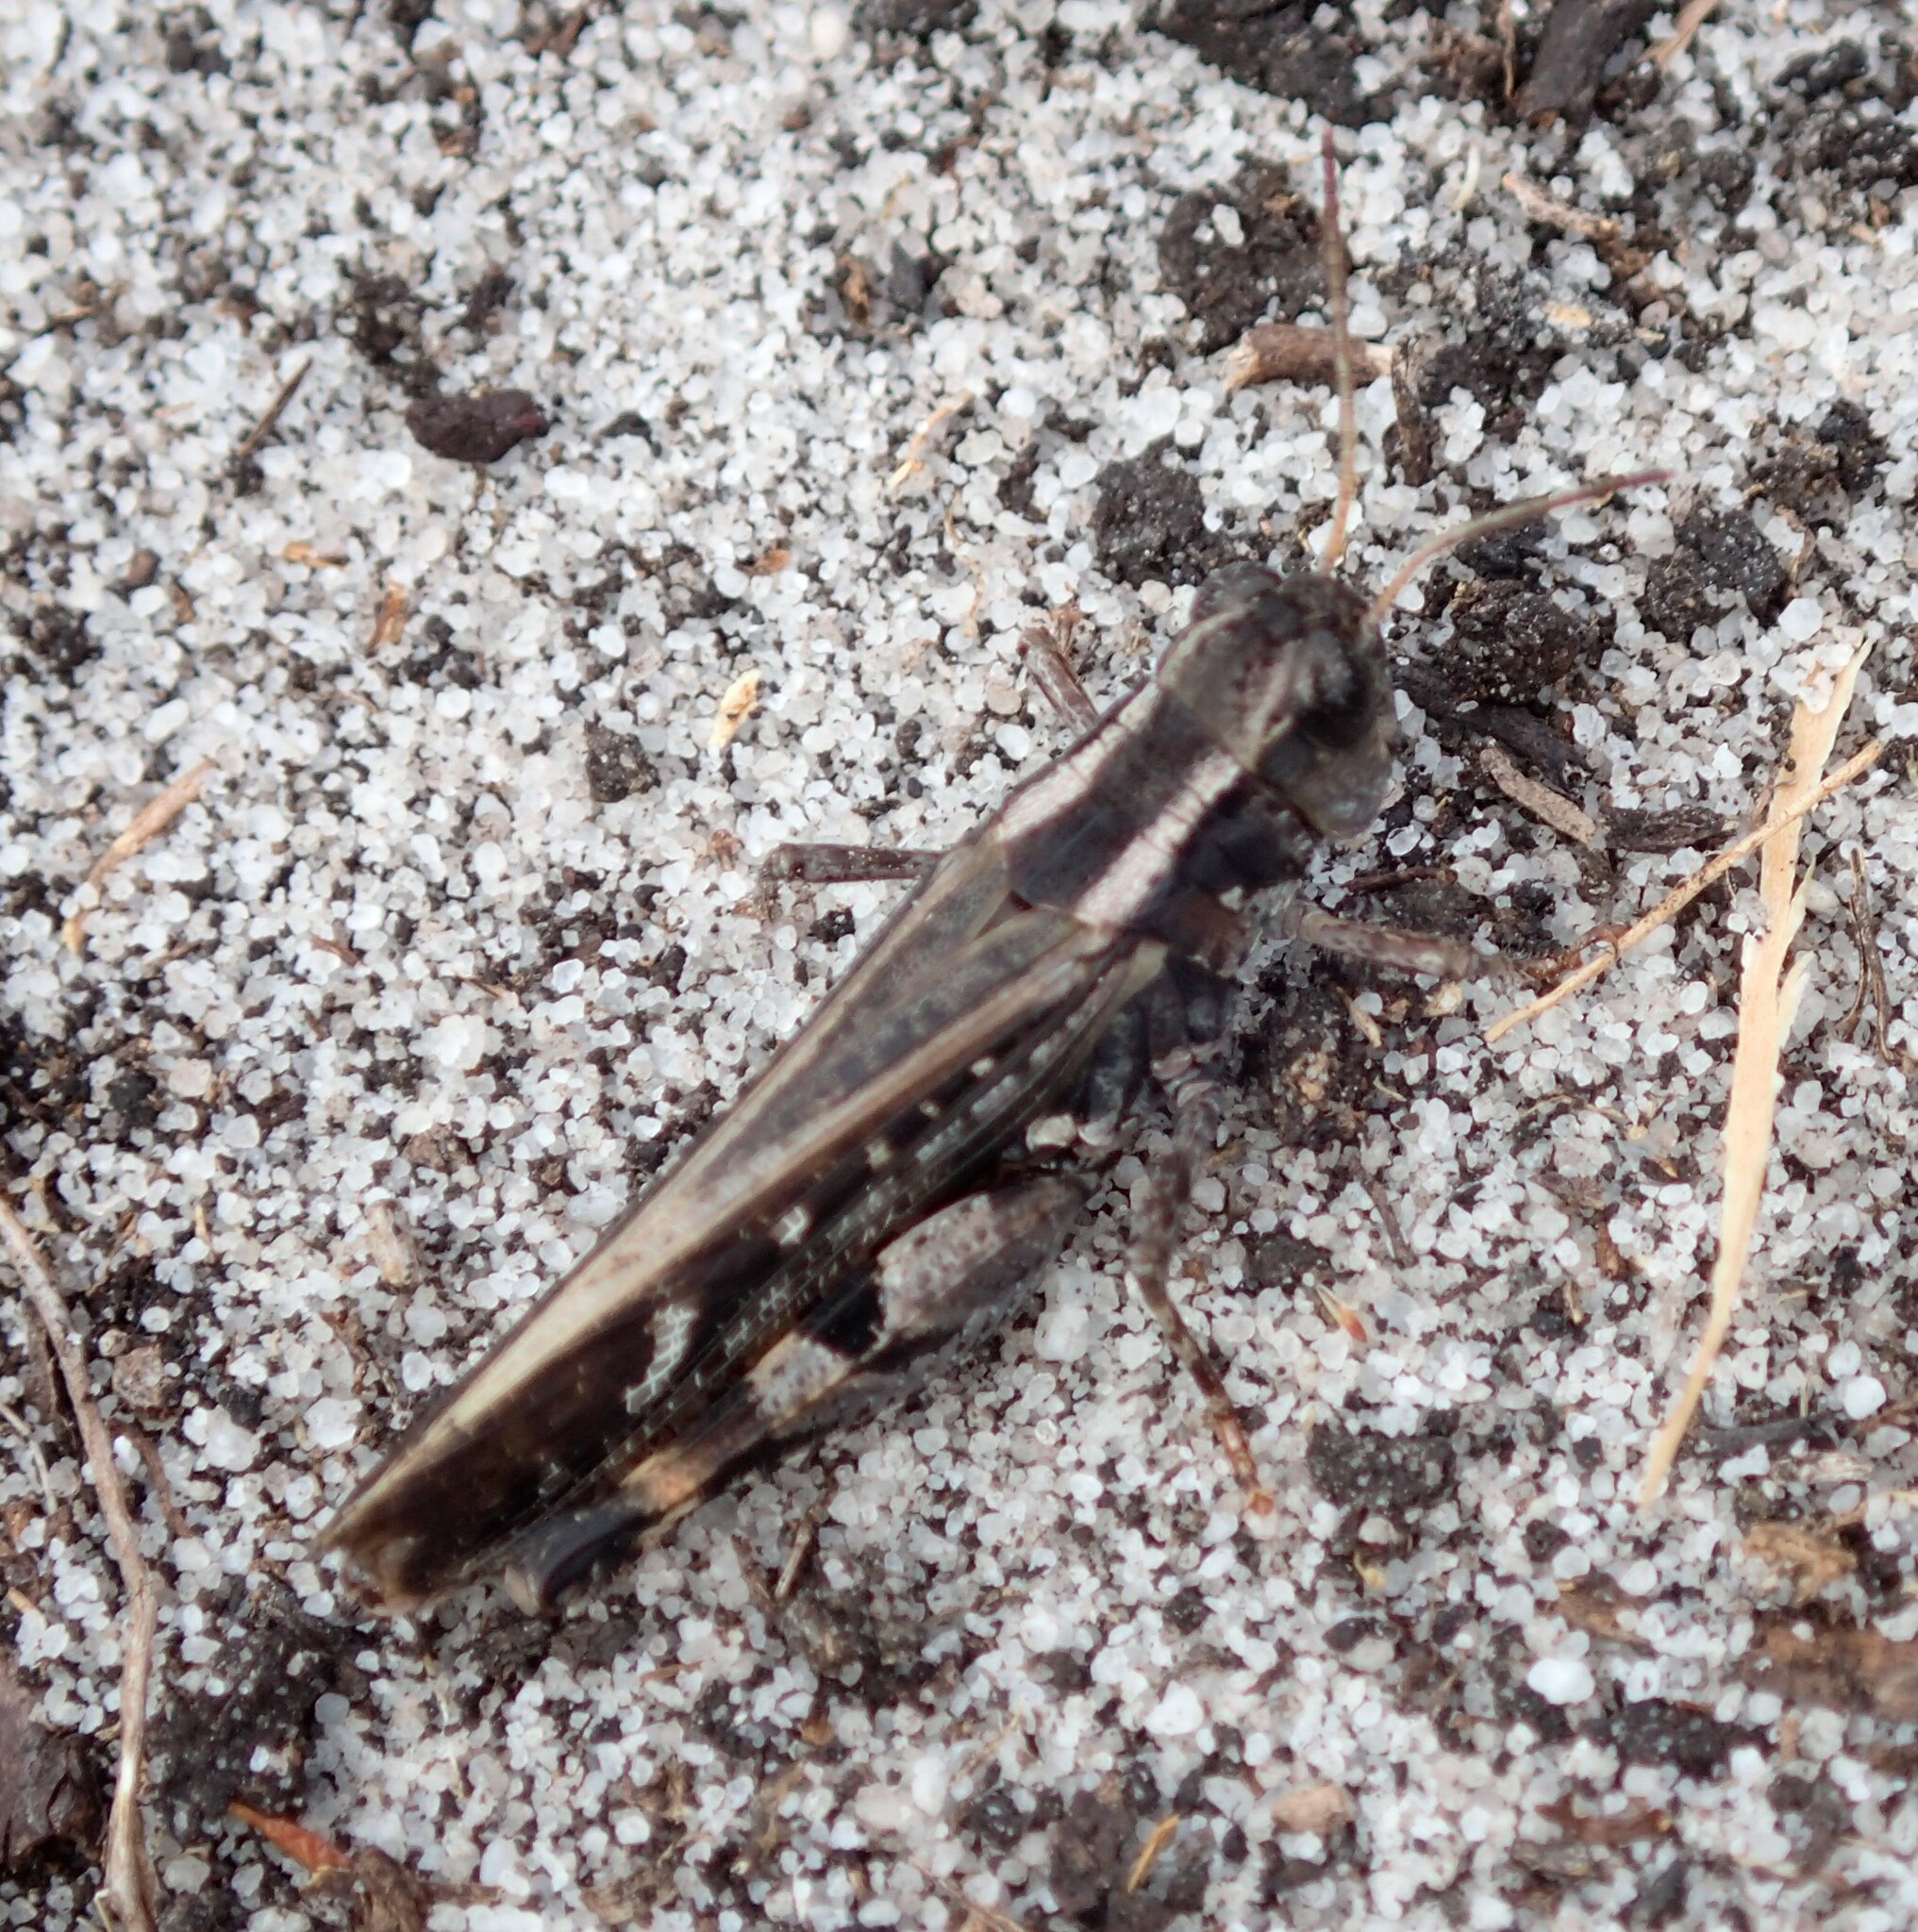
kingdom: Animalia
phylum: Arthropoda
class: Insecta
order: Orthoptera
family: Acrididae
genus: Exarna
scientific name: Exarna includens
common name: Red-legged exarna
